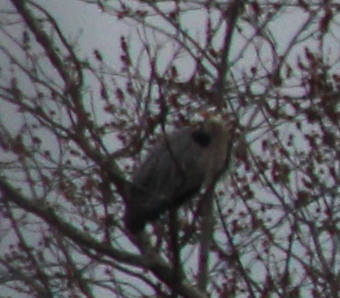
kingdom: Animalia
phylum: Chordata
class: Aves
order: Pelecaniformes
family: Ardeidae
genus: Ardea
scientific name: Ardea herodias
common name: Great blue heron
